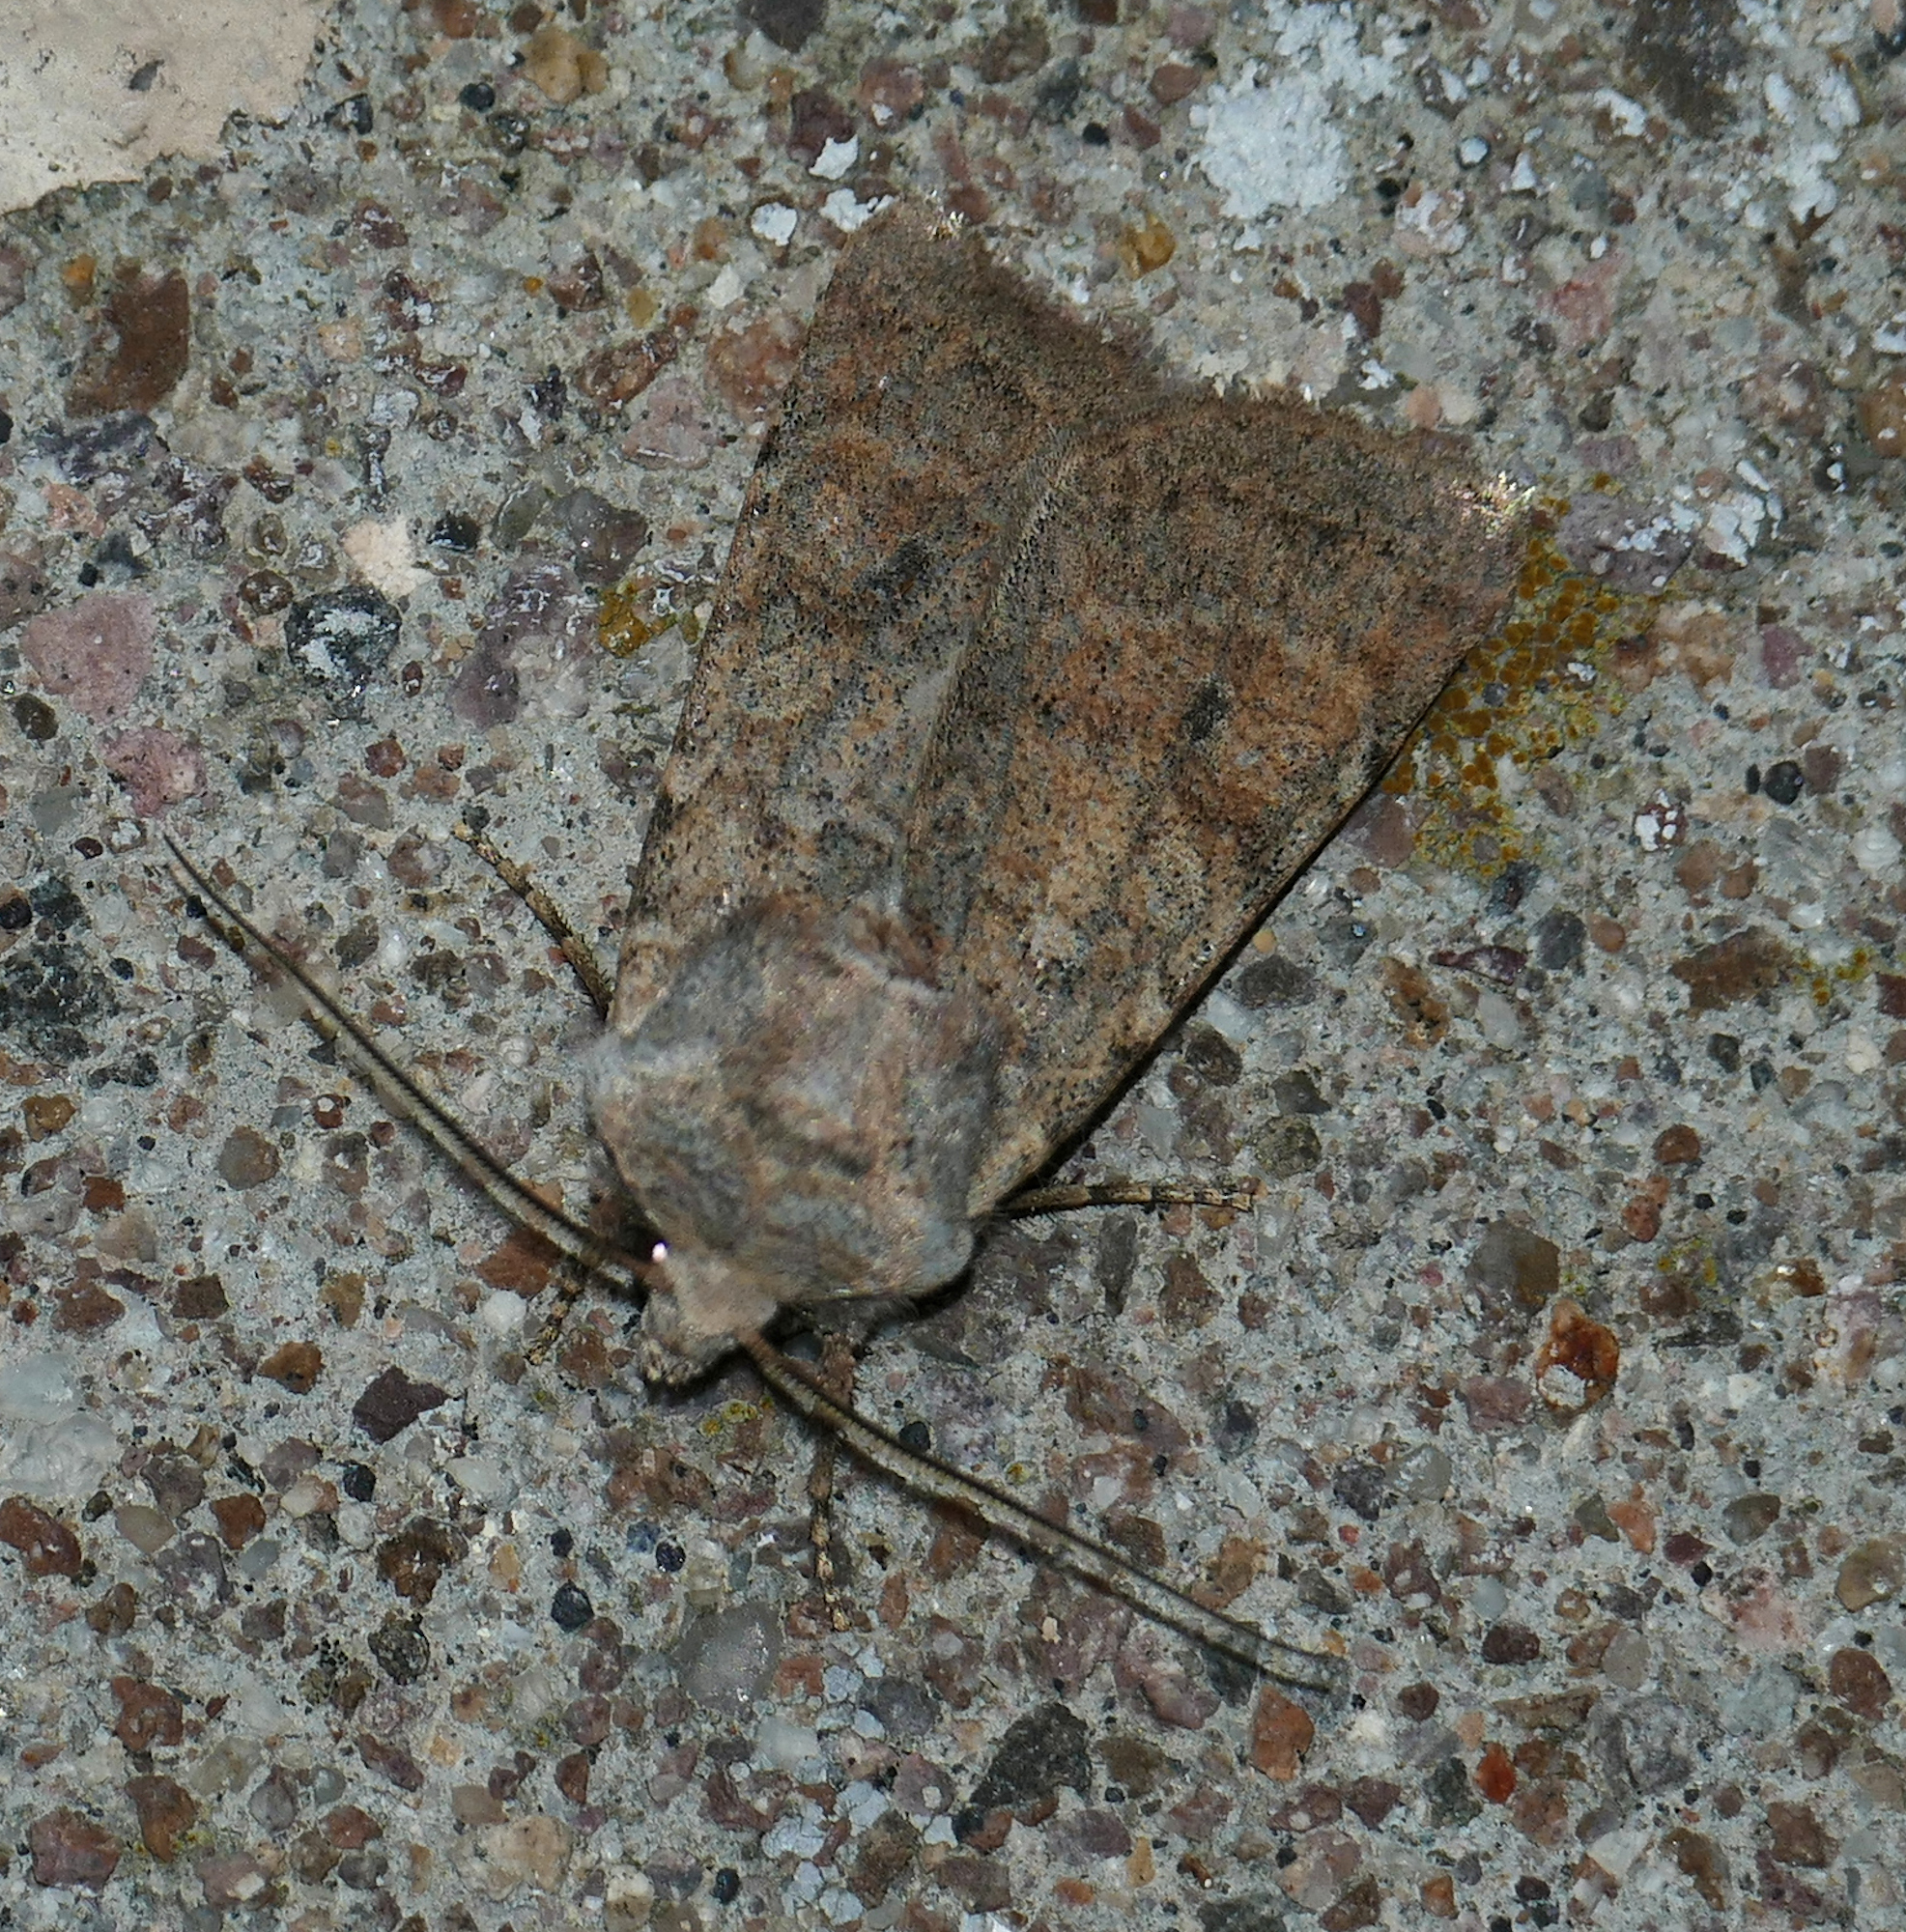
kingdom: Animalia
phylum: Arthropoda
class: Insecta
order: Lepidoptera
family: Noctuidae
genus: Euxoa
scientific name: Euxoa medialis
